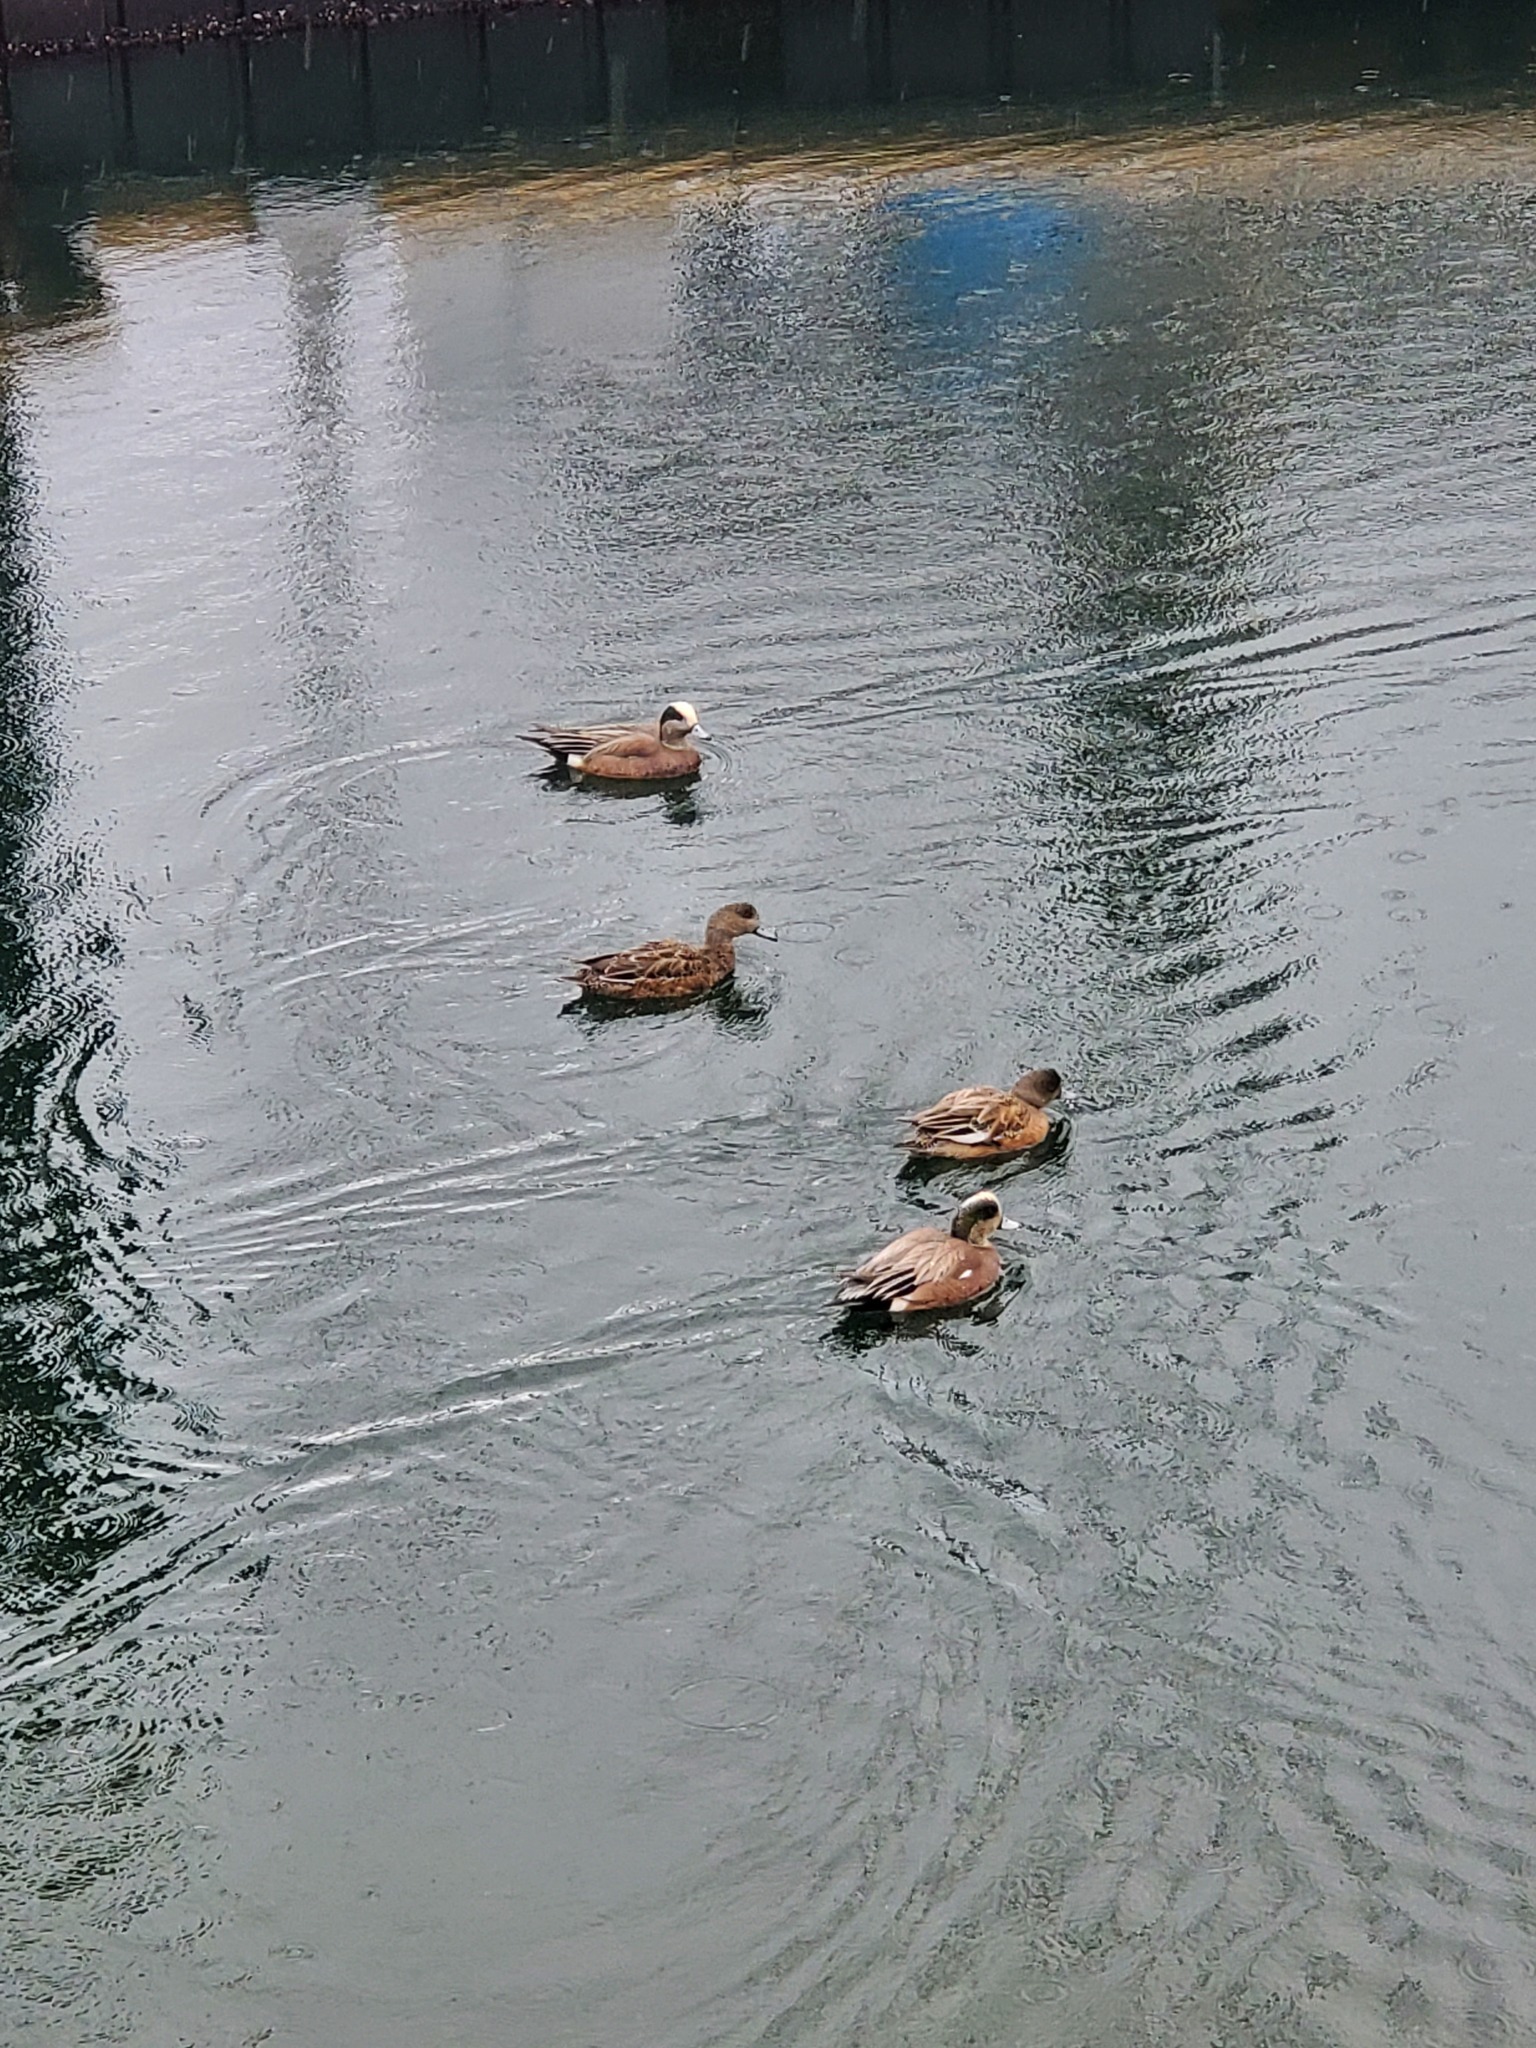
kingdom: Animalia
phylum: Chordata
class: Aves
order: Anseriformes
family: Anatidae
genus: Mareca
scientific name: Mareca americana
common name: American wigeon
